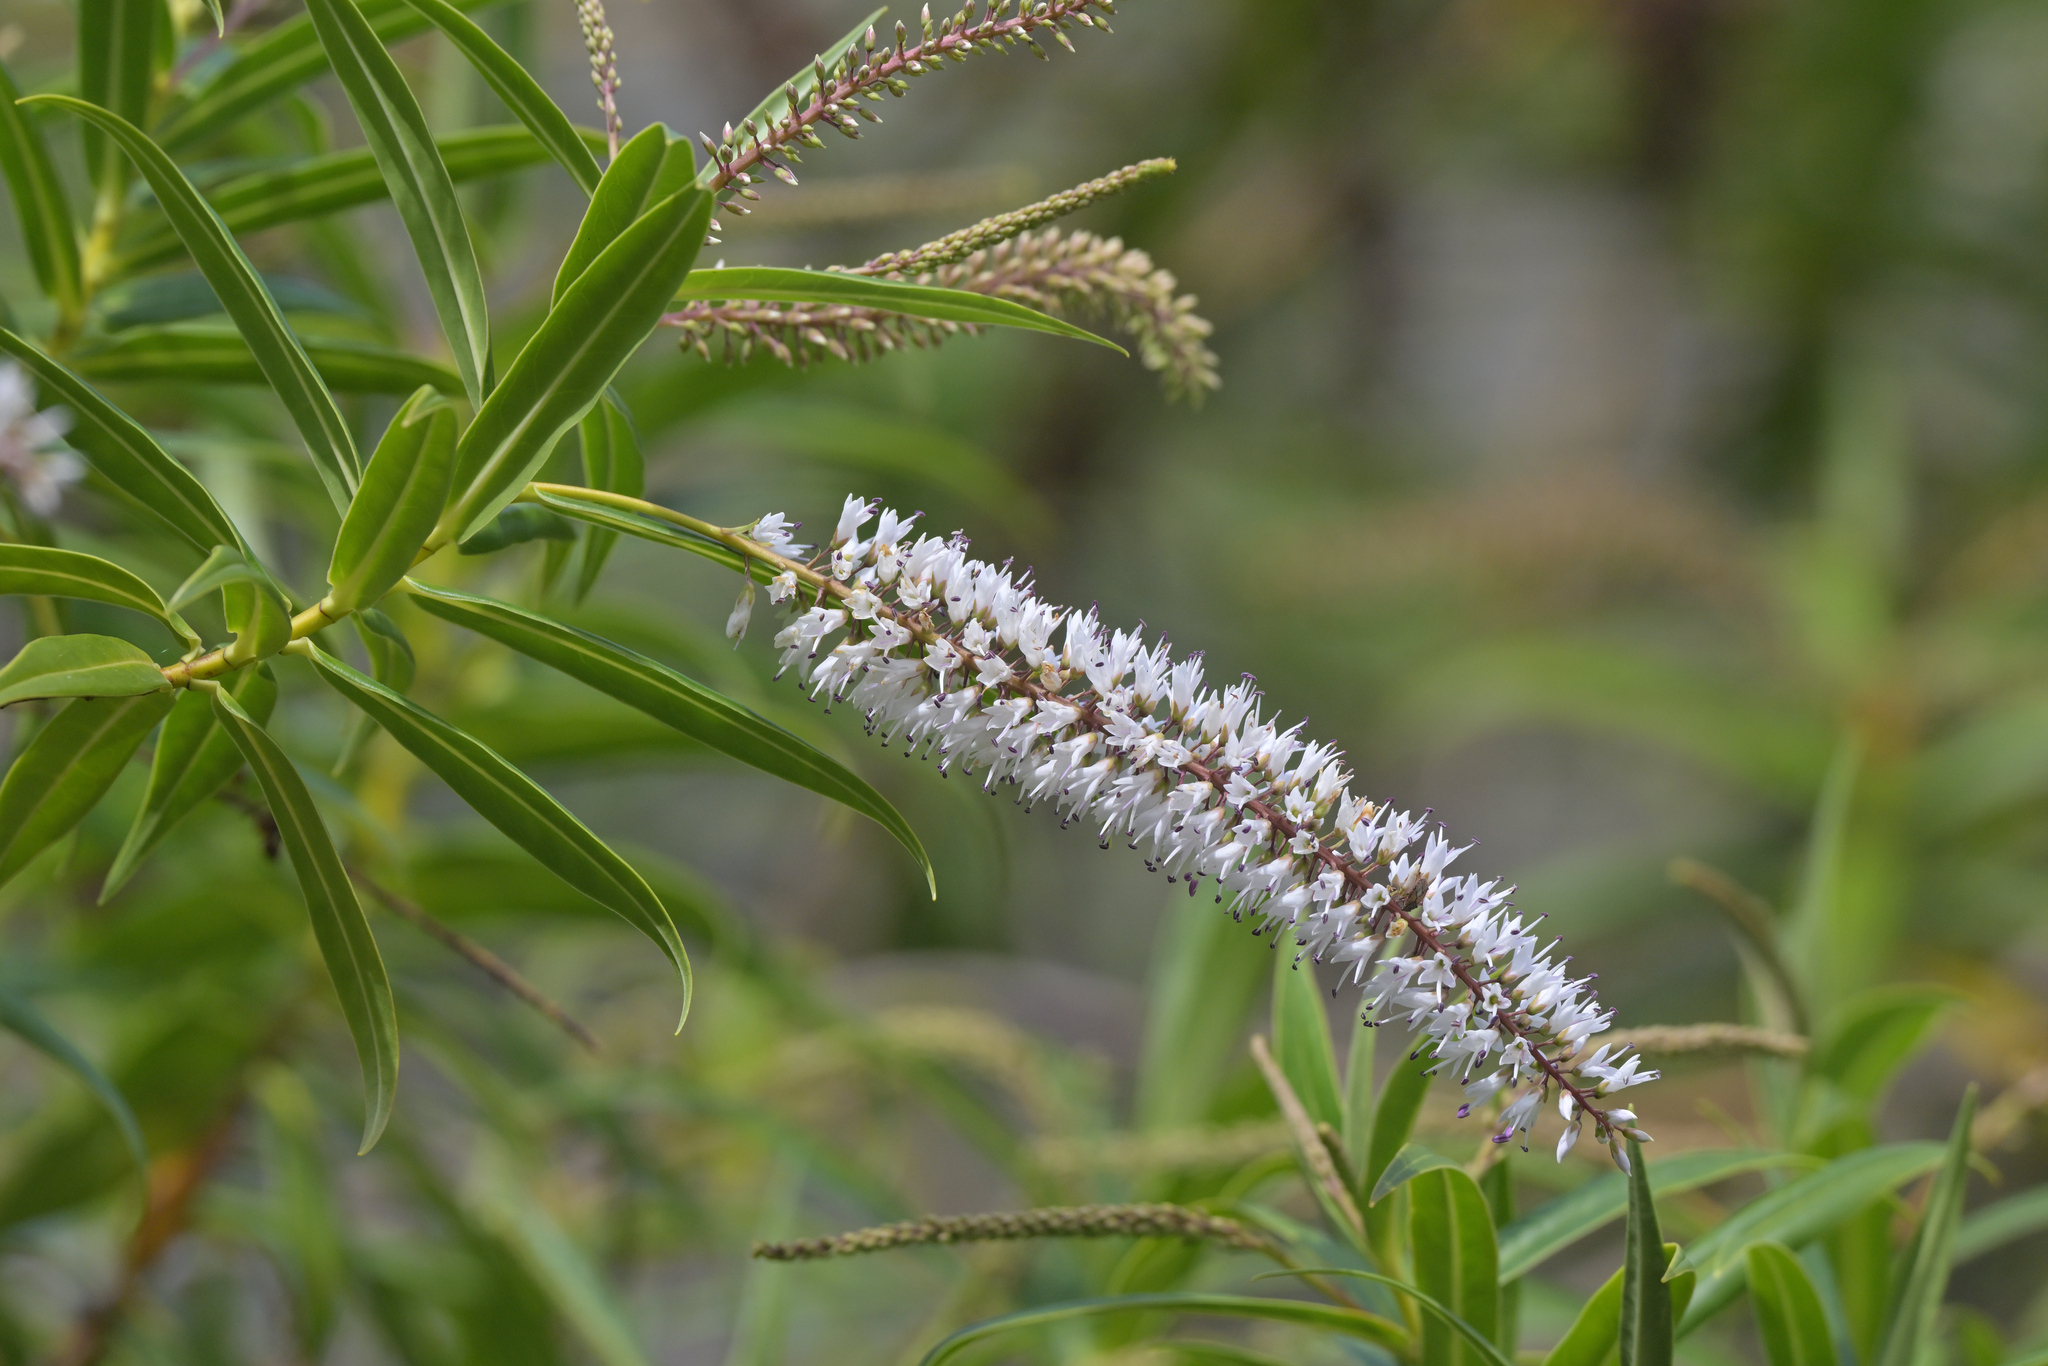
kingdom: Plantae
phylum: Tracheophyta
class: Magnoliopsida
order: Lamiales
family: Plantaginaceae
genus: Veronica
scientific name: Veronica salicifolia
